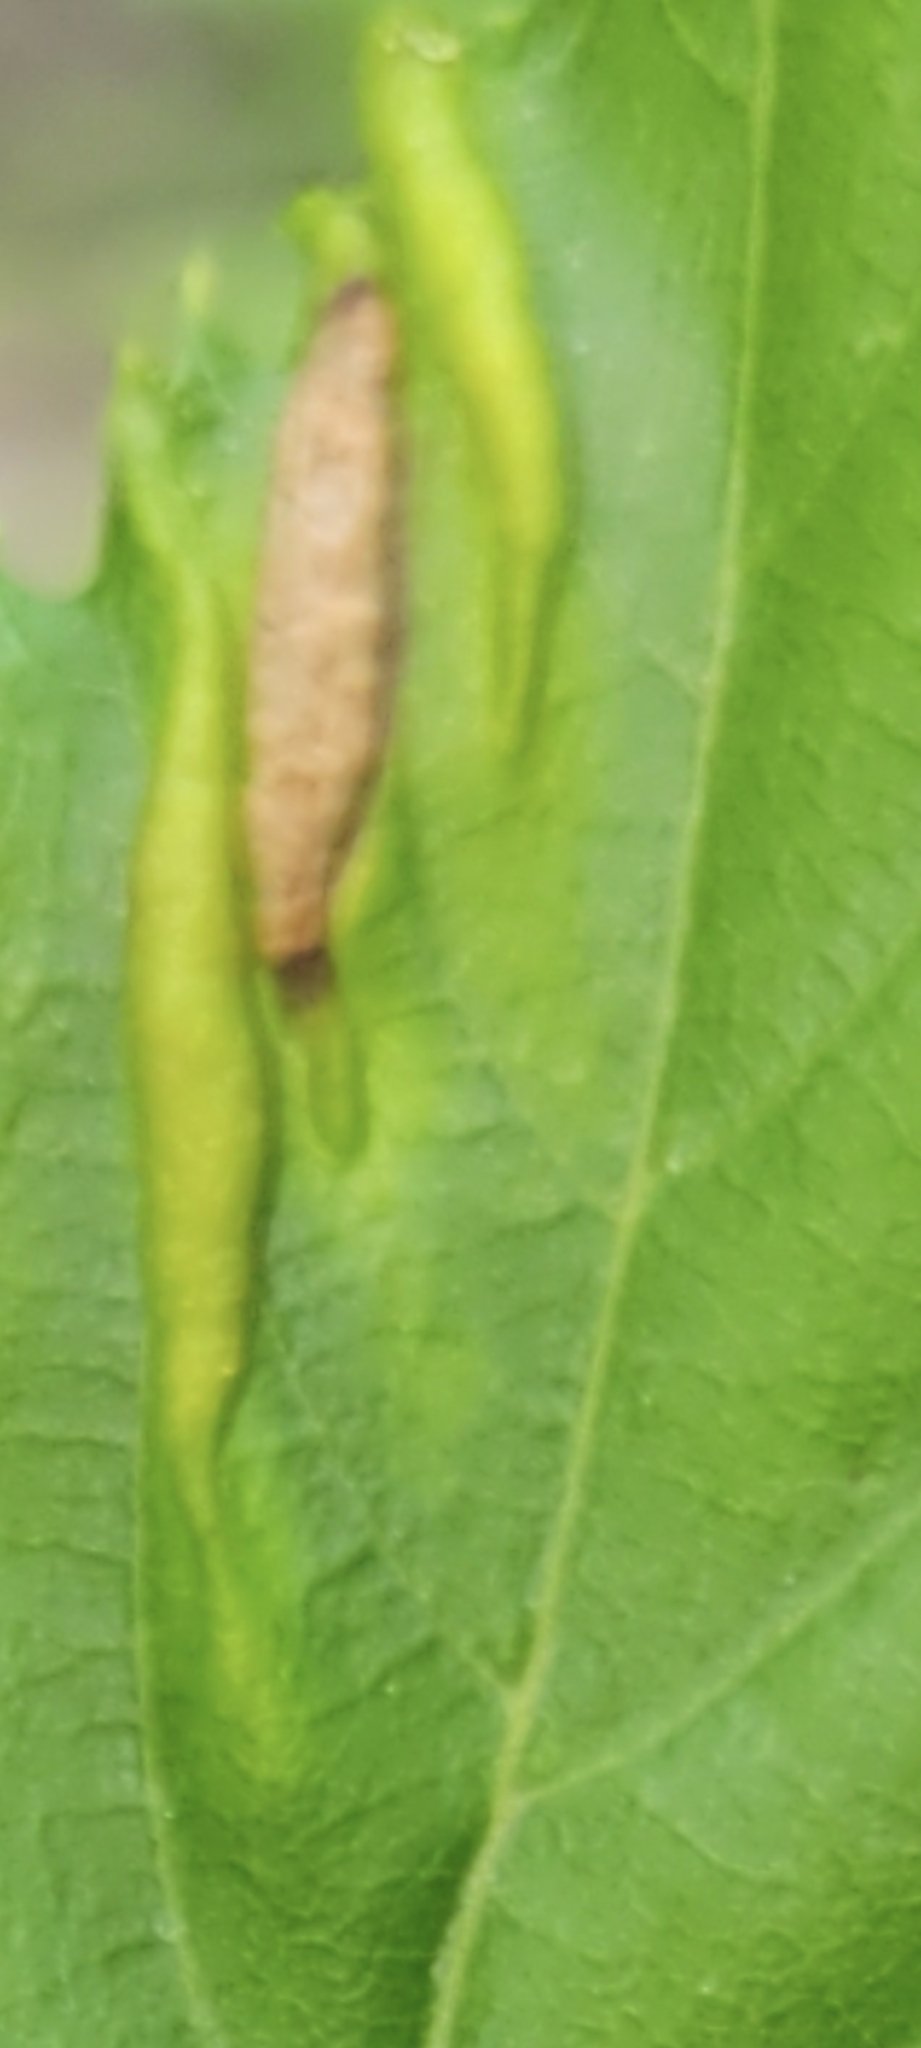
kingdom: Animalia
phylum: Arthropoda
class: Insecta
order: Diptera
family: Cecidomyiidae
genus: Dasineura
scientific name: Dasineura pudibunda
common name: Hornbeam leaf gall midge
